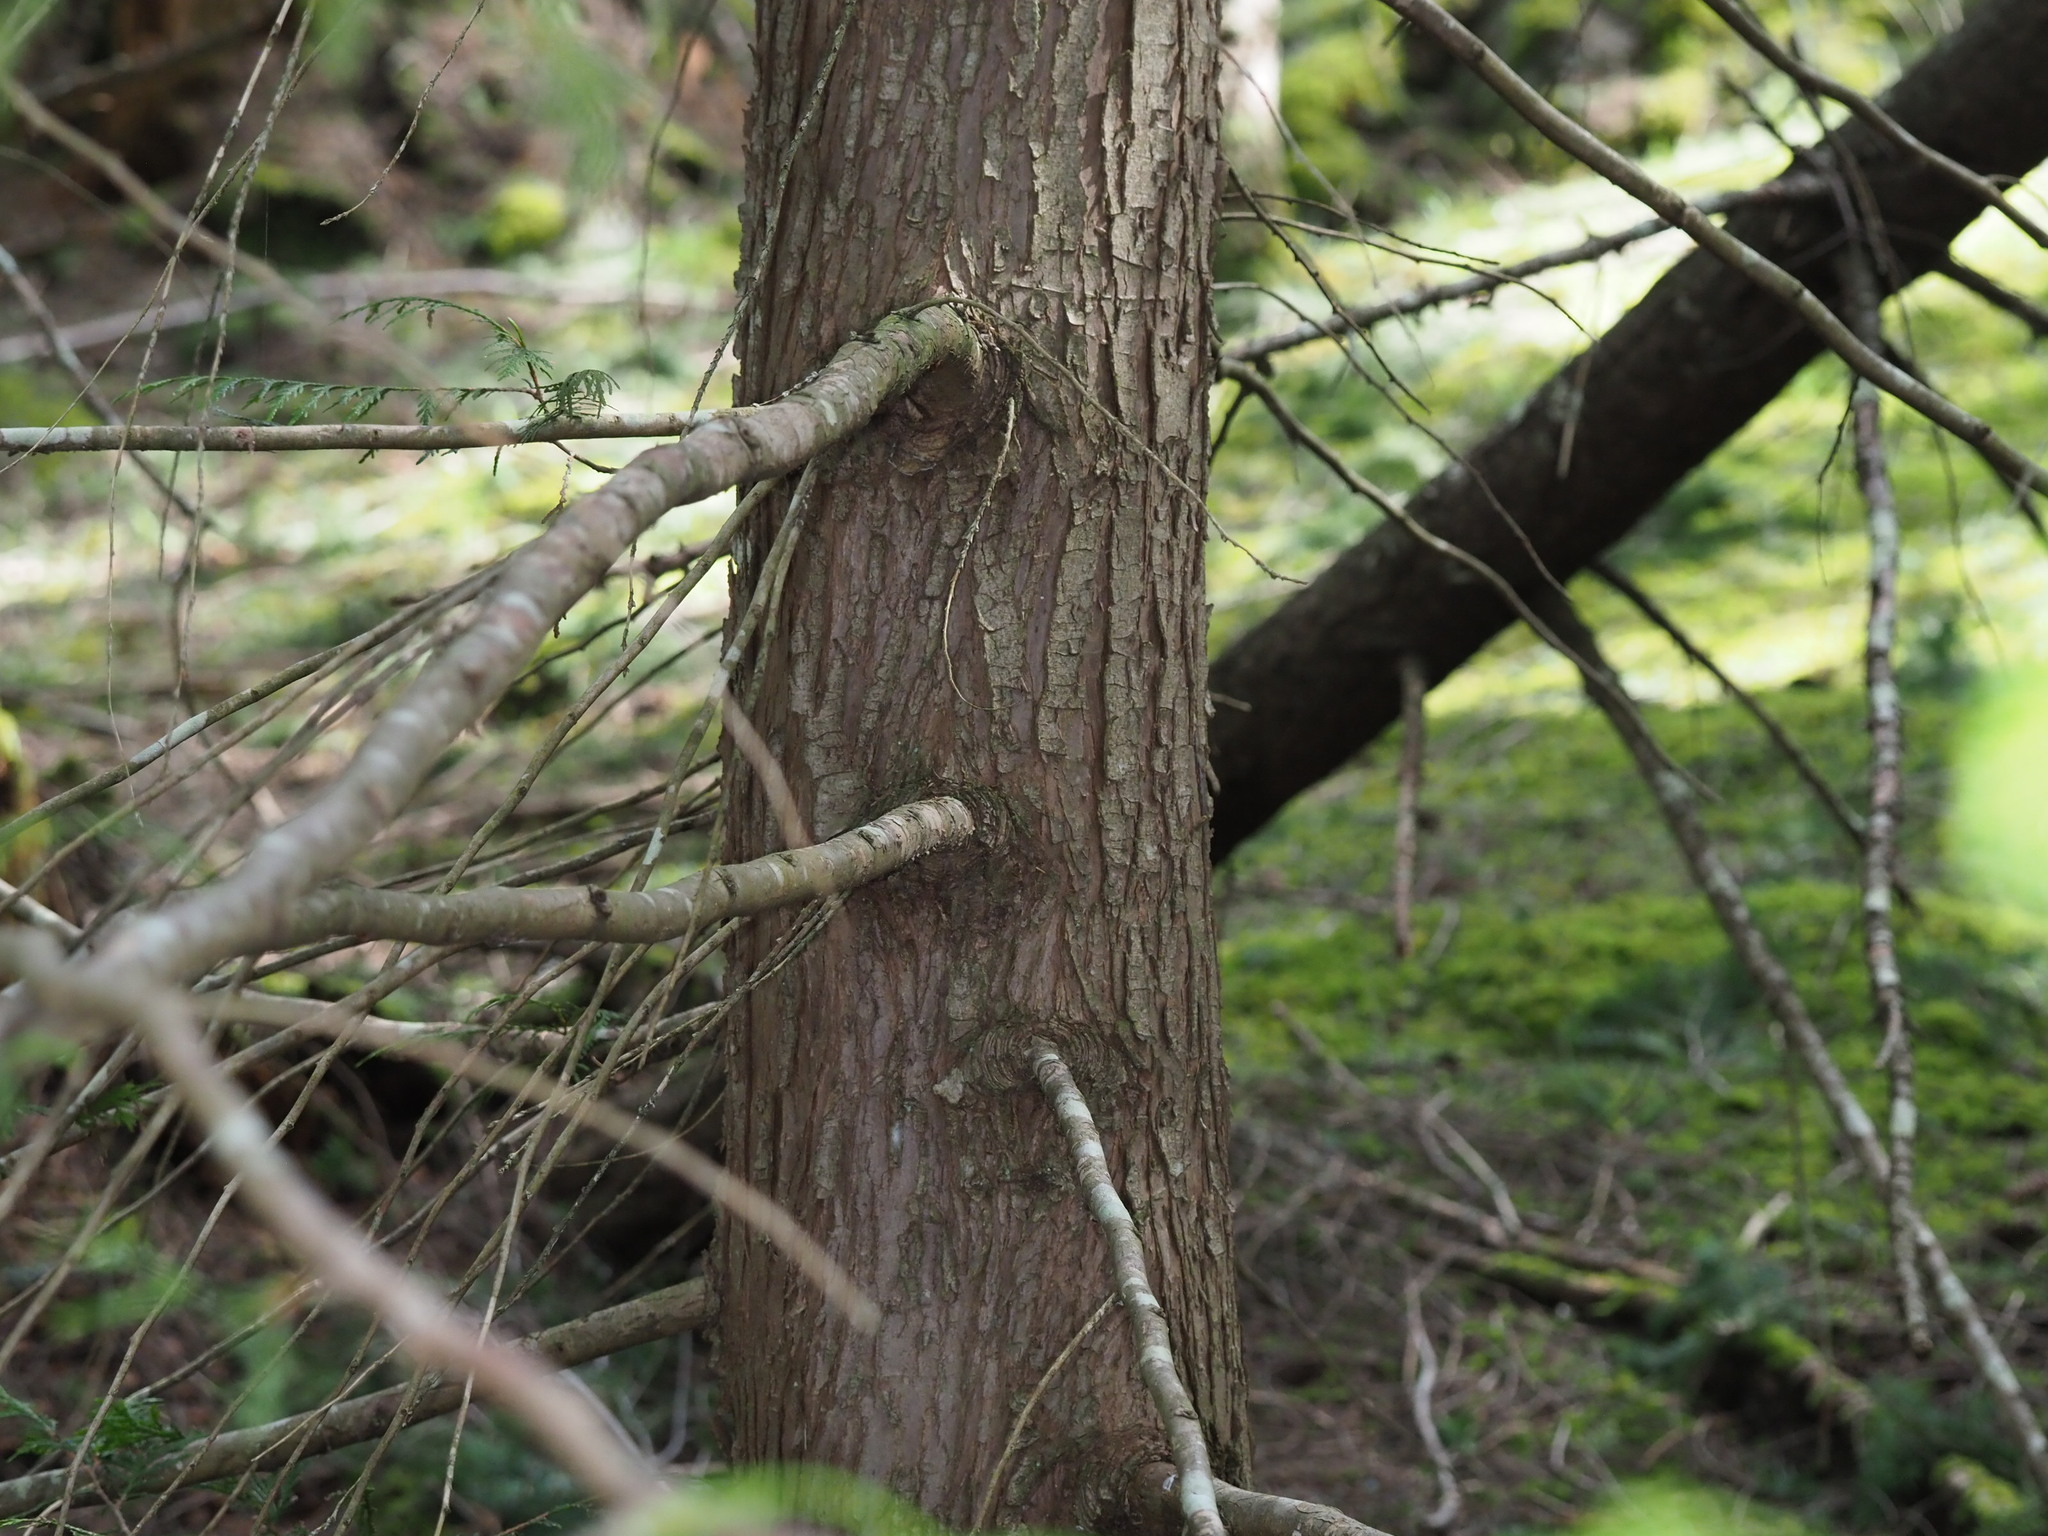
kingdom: Plantae
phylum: Tracheophyta
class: Pinopsida
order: Pinales
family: Cupressaceae
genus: Thuja
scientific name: Thuja plicata
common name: Western red-cedar
